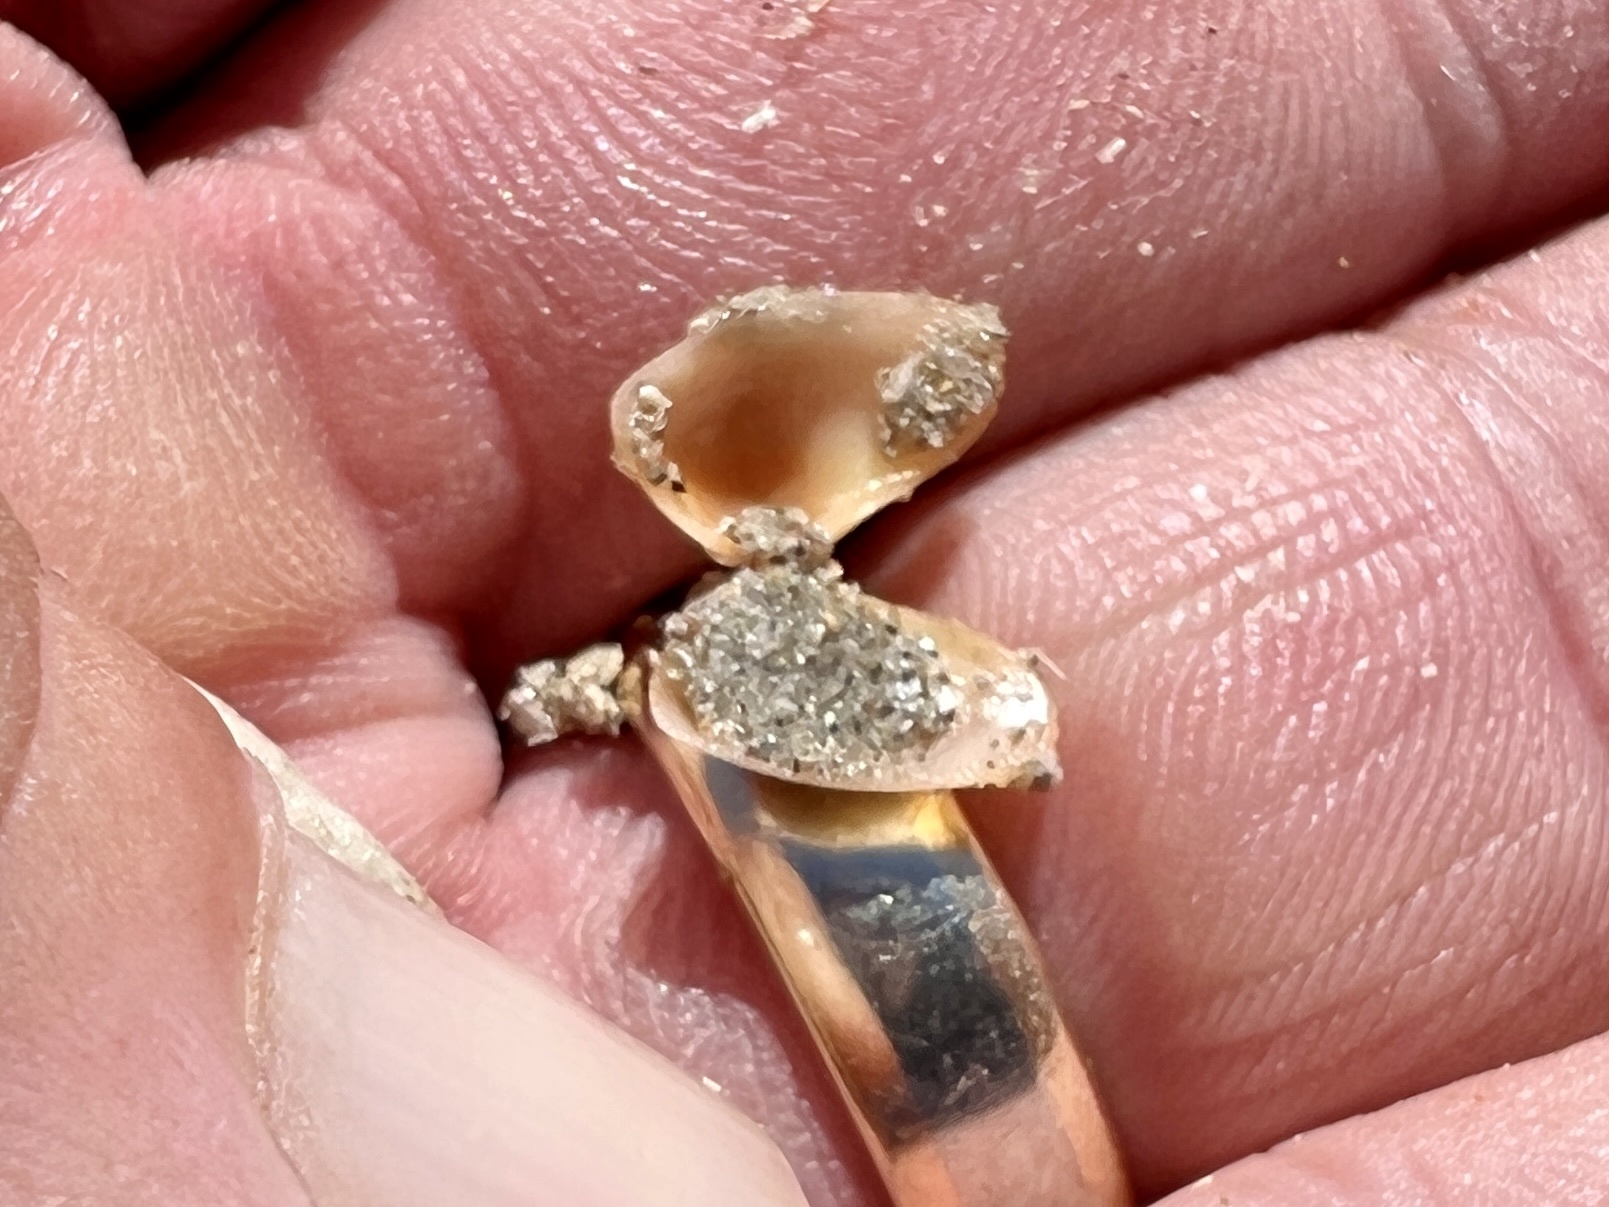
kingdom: Animalia
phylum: Mollusca
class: Bivalvia
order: Cardiida
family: Donacidae
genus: Donax
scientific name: Donax variabilis
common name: Butterfly shell
